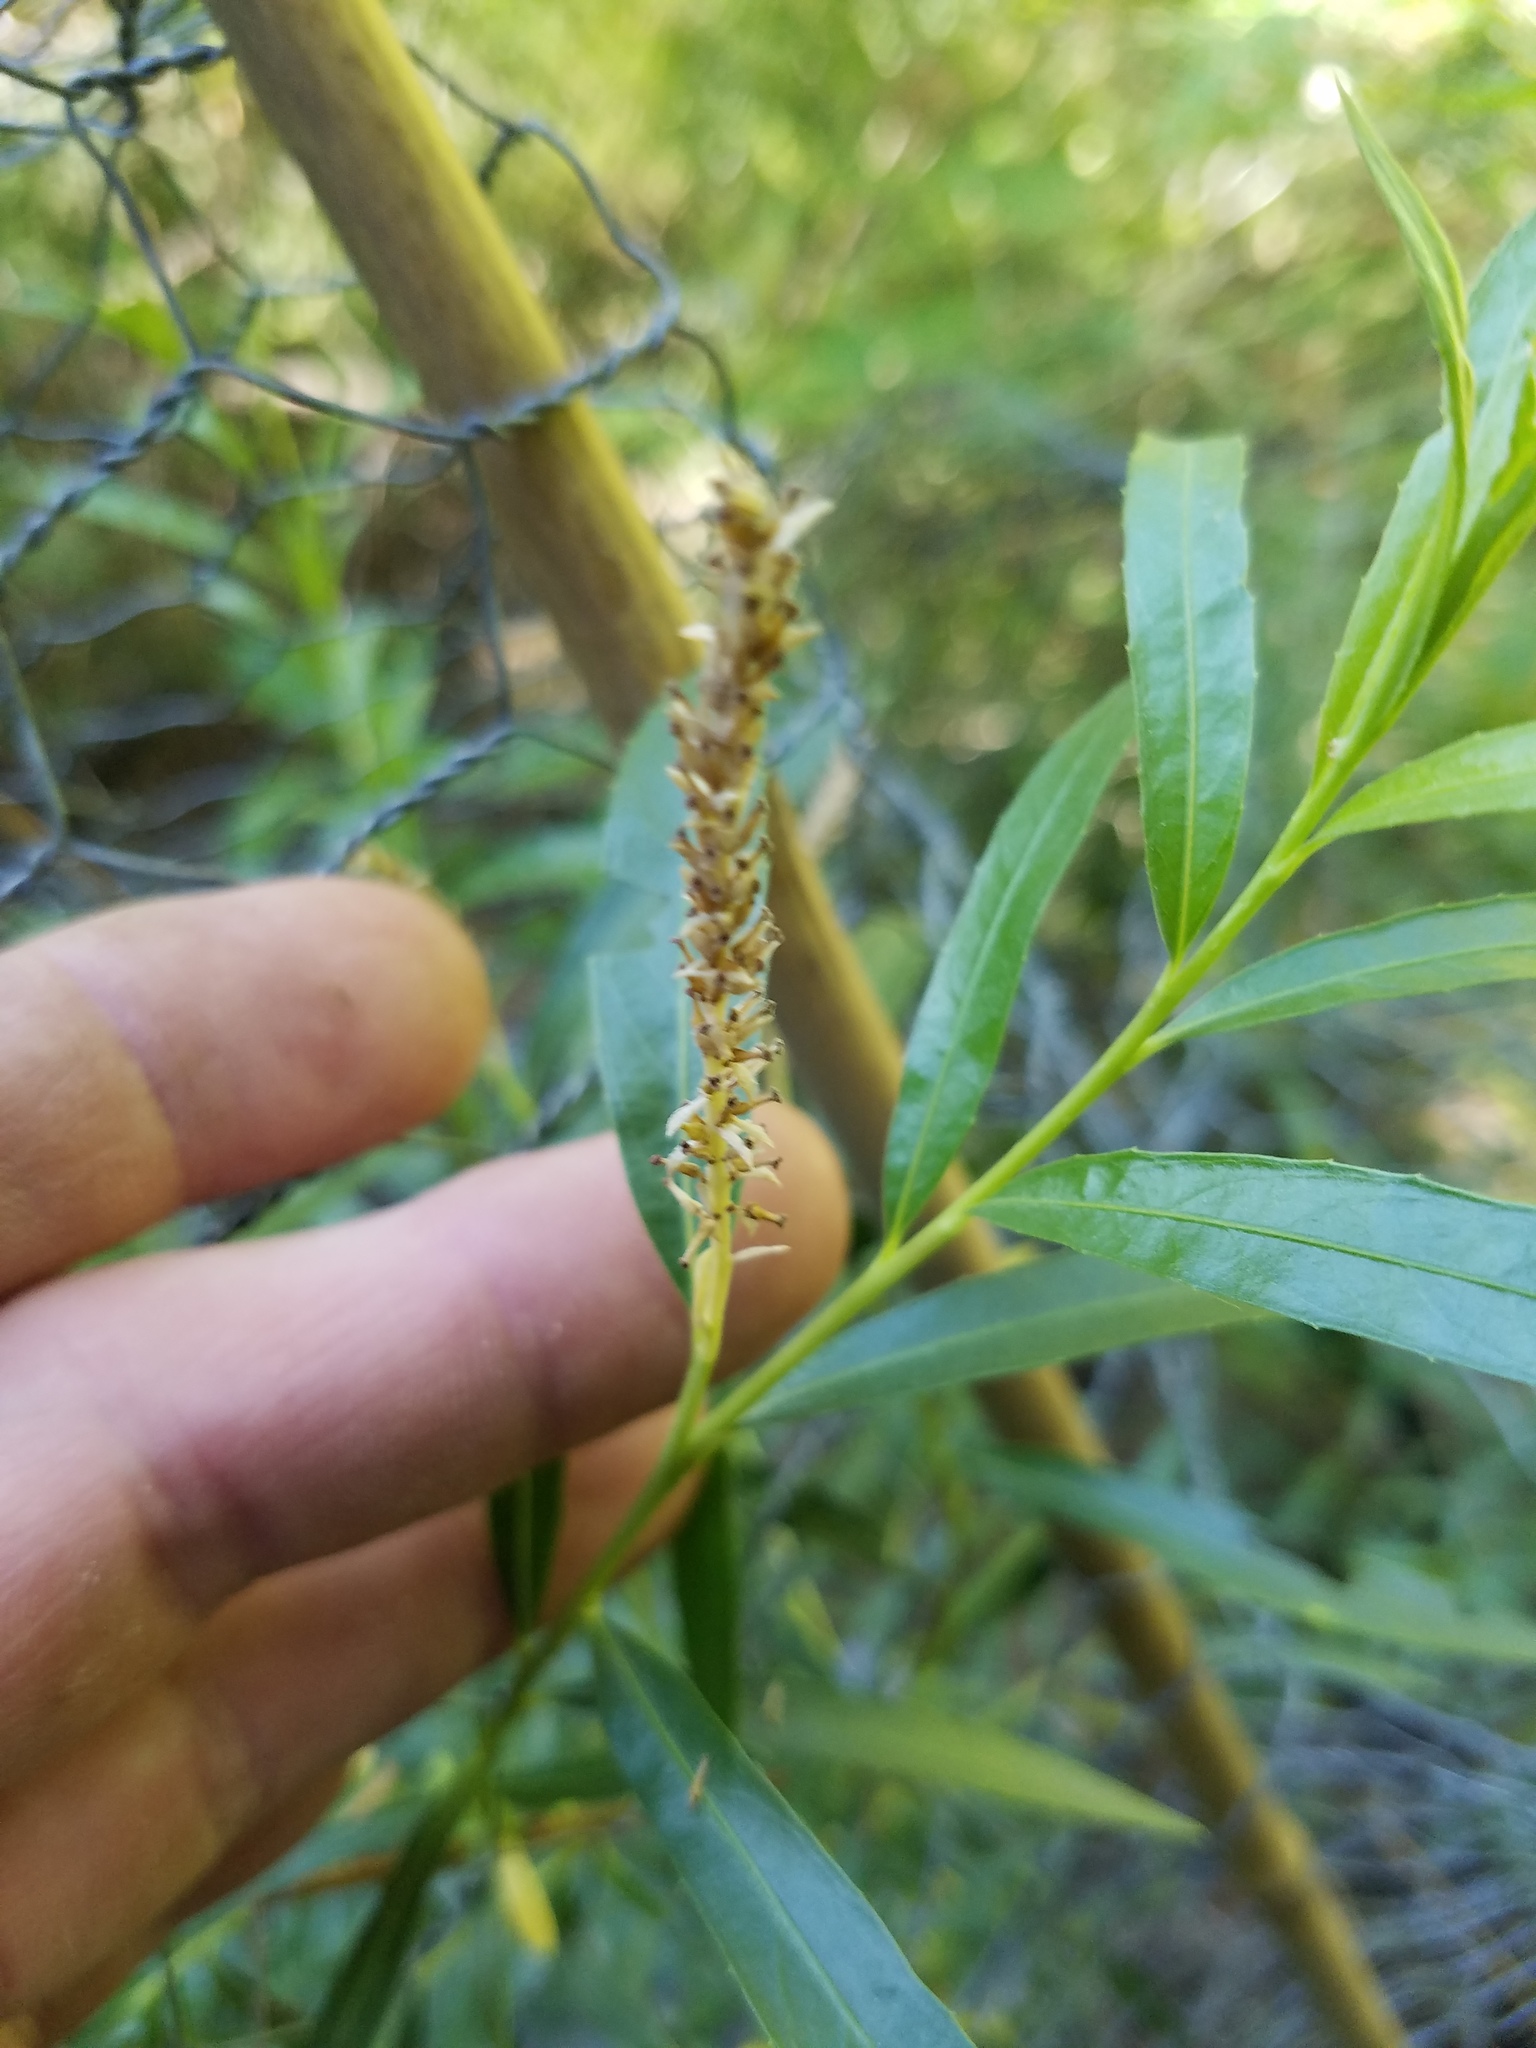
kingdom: Plantae
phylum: Tracheophyta
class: Magnoliopsida
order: Malpighiales
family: Salicaceae
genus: Salix
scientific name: Salix interior
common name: Sandbar willow
